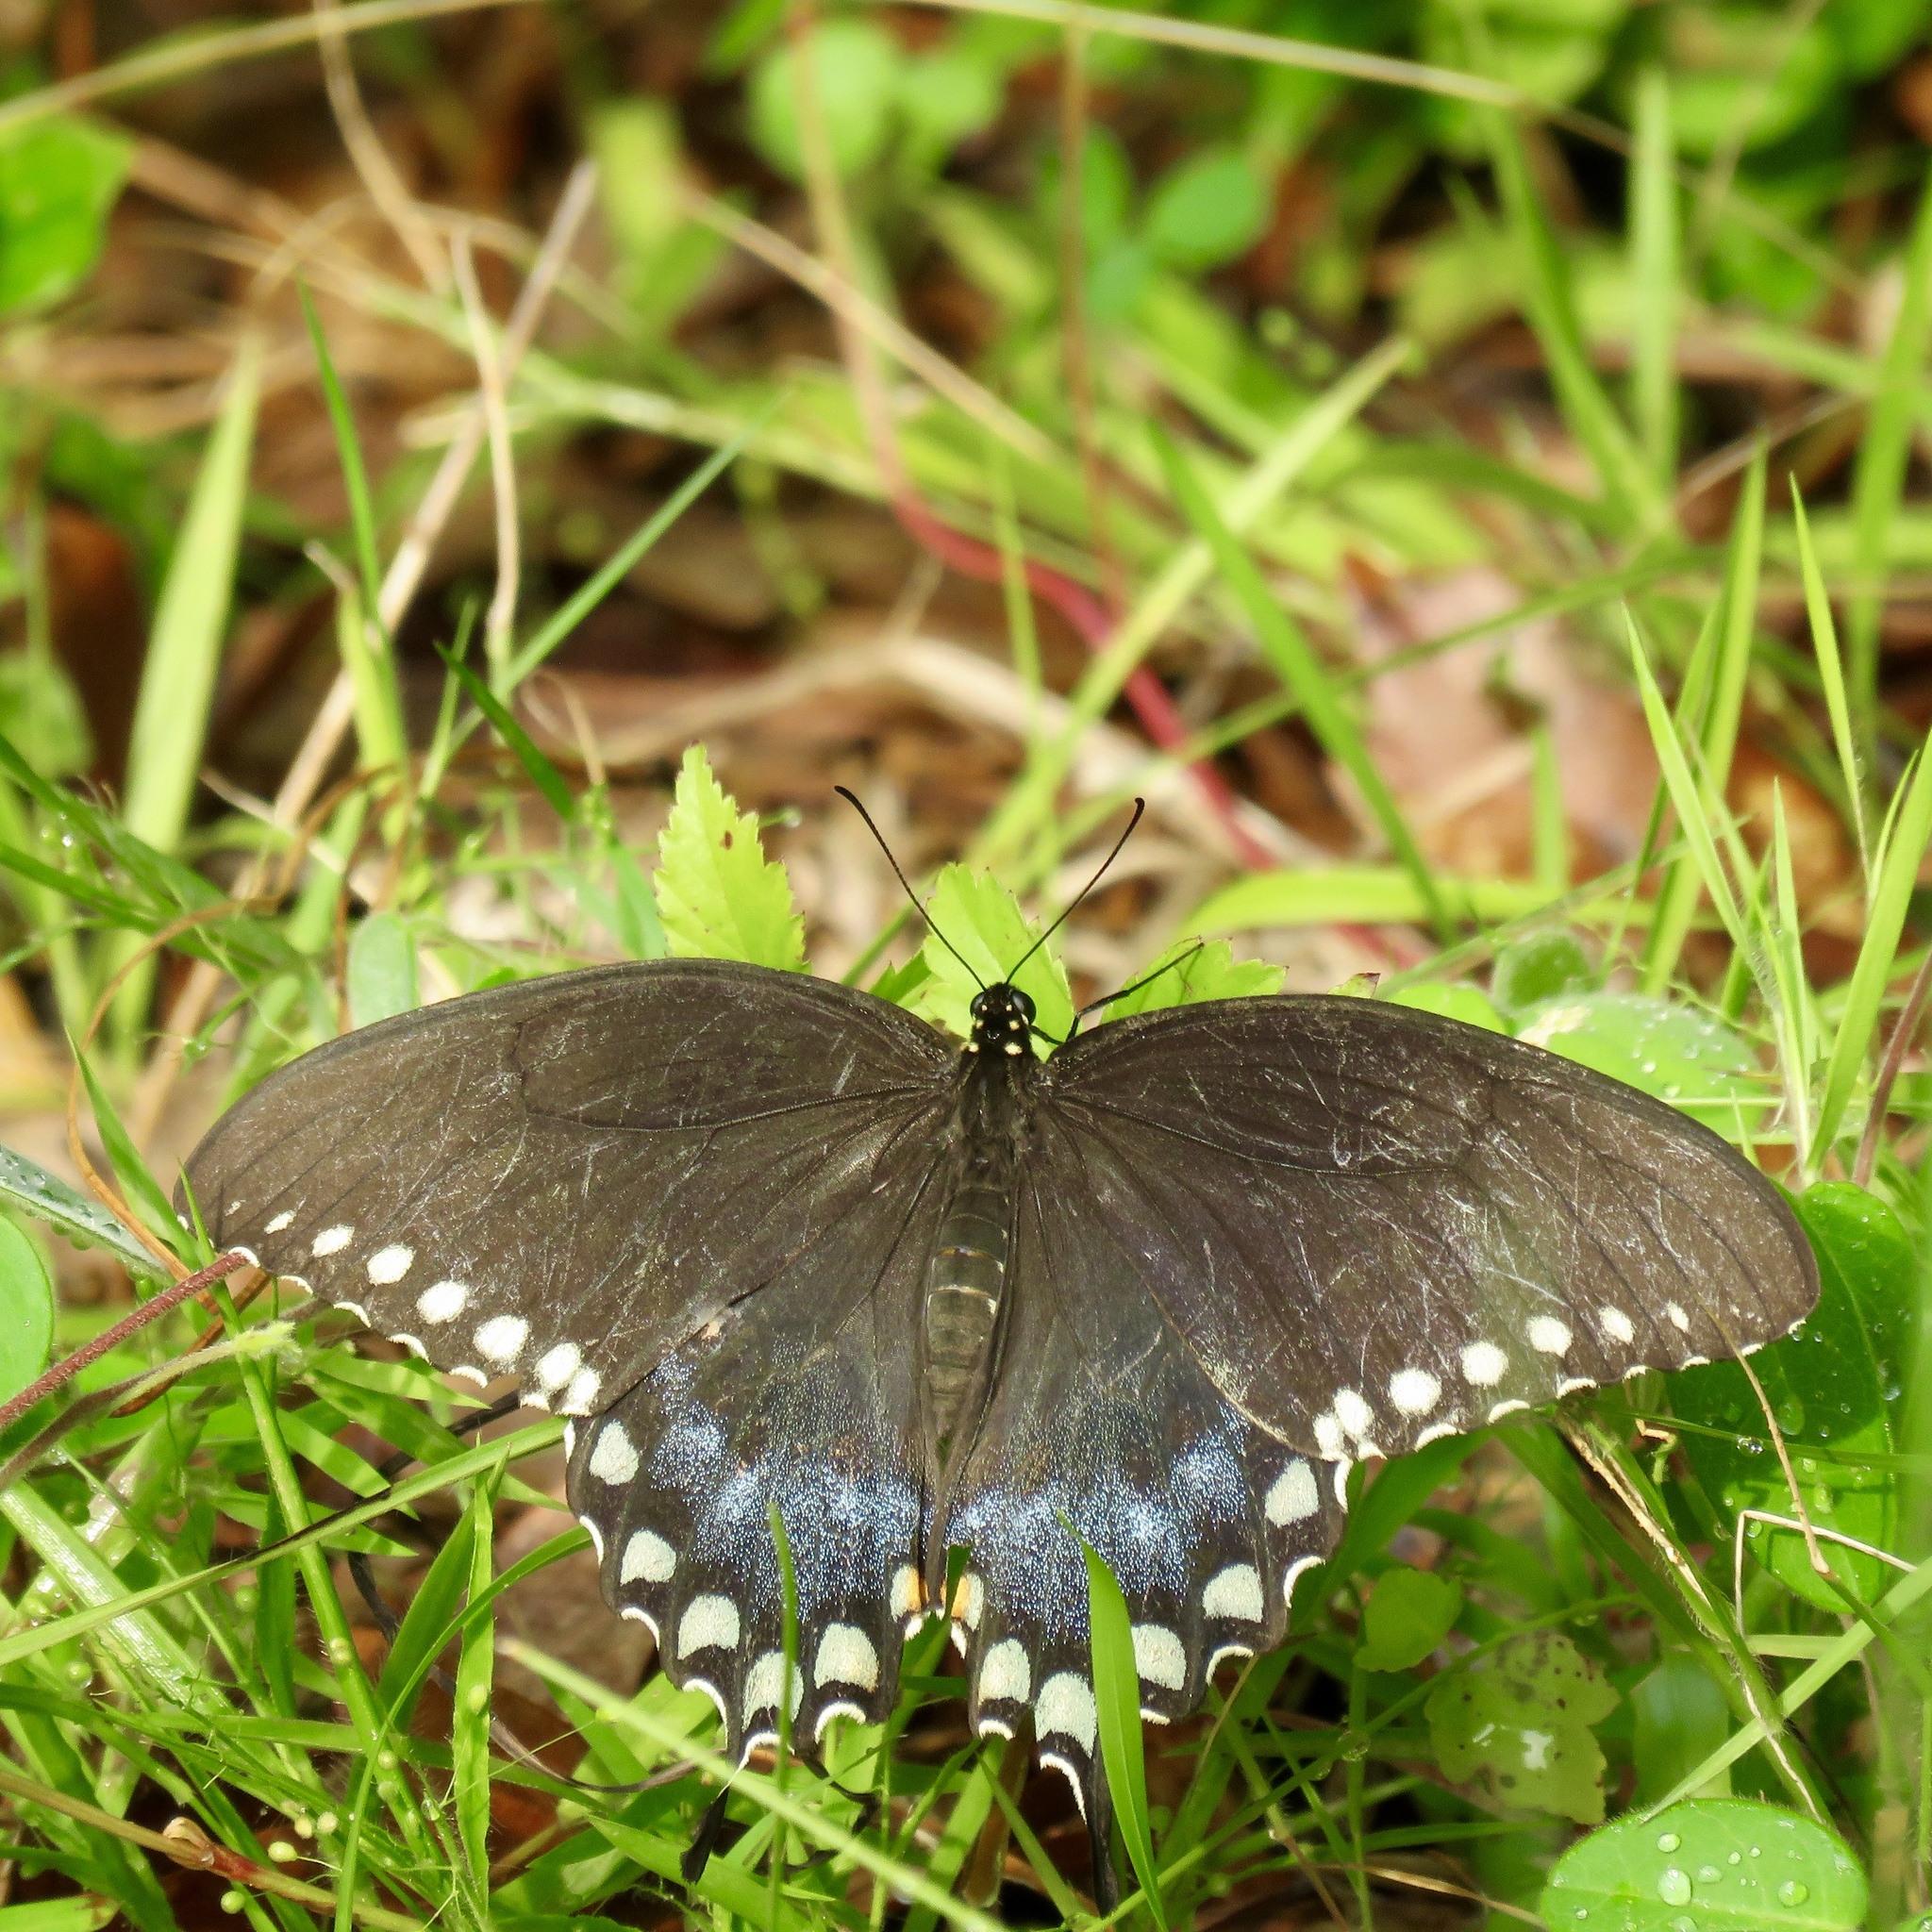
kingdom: Animalia
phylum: Arthropoda
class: Insecta
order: Lepidoptera
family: Papilionidae
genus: Papilio
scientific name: Papilio troilus
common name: Spicebush swallowtail
